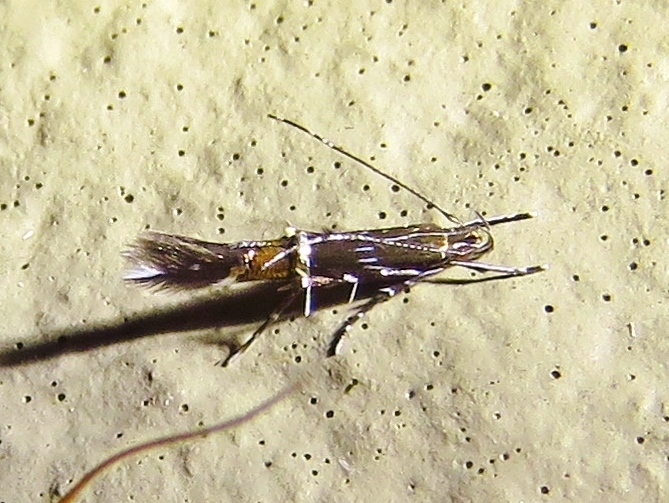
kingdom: Animalia
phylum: Arthropoda
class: Insecta
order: Lepidoptera
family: Cosmopterigidae
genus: Cosmopterix
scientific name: Cosmopterix pulchrimella
